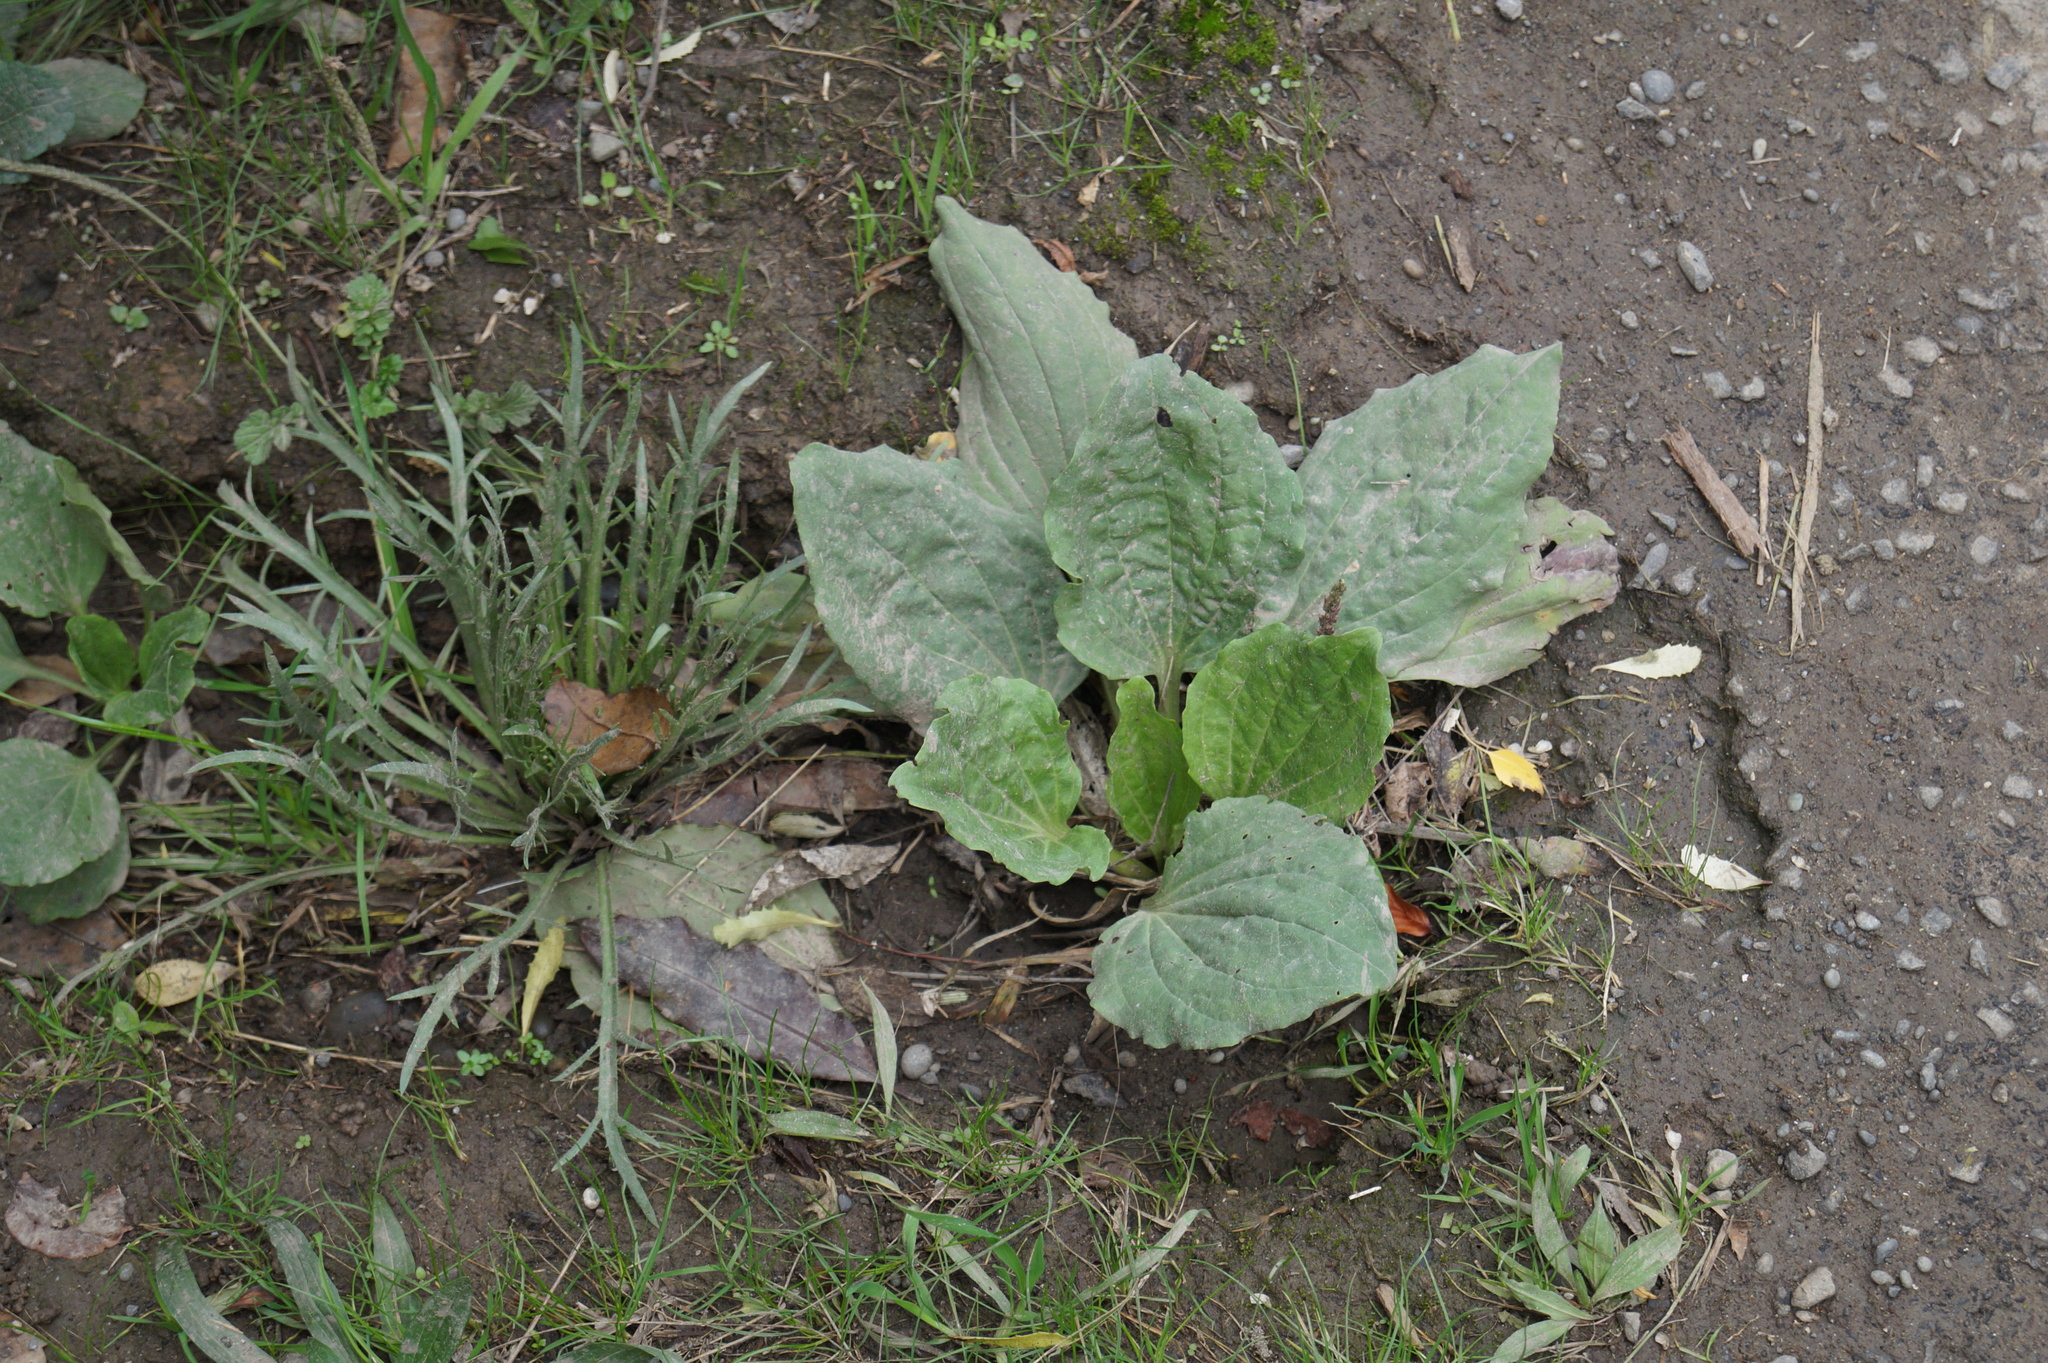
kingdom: Plantae
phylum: Tracheophyta
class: Magnoliopsida
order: Lamiales
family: Plantaginaceae
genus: Plantago
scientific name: Plantago major
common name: Common plantain
